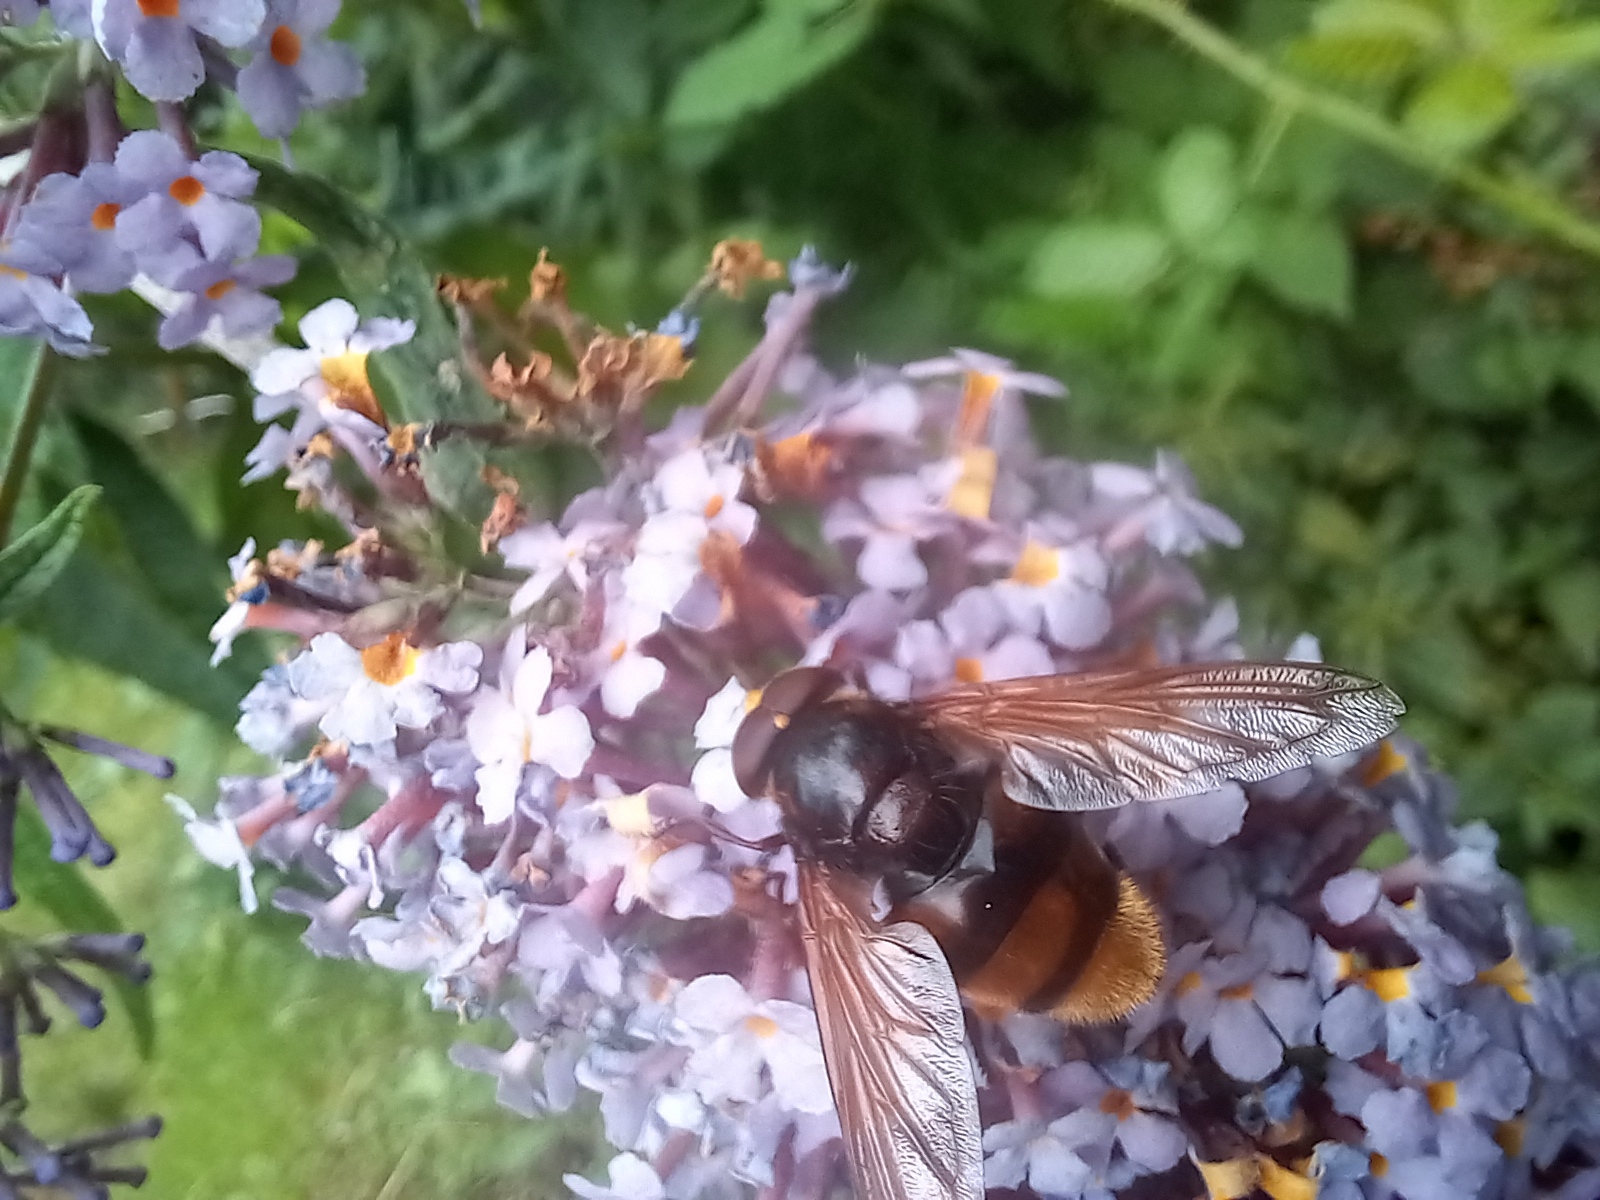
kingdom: Animalia
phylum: Arthropoda
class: Insecta
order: Diptera
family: Syrphidae
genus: Volucella
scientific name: Volucella zonaria
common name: Hornet hoverfly
